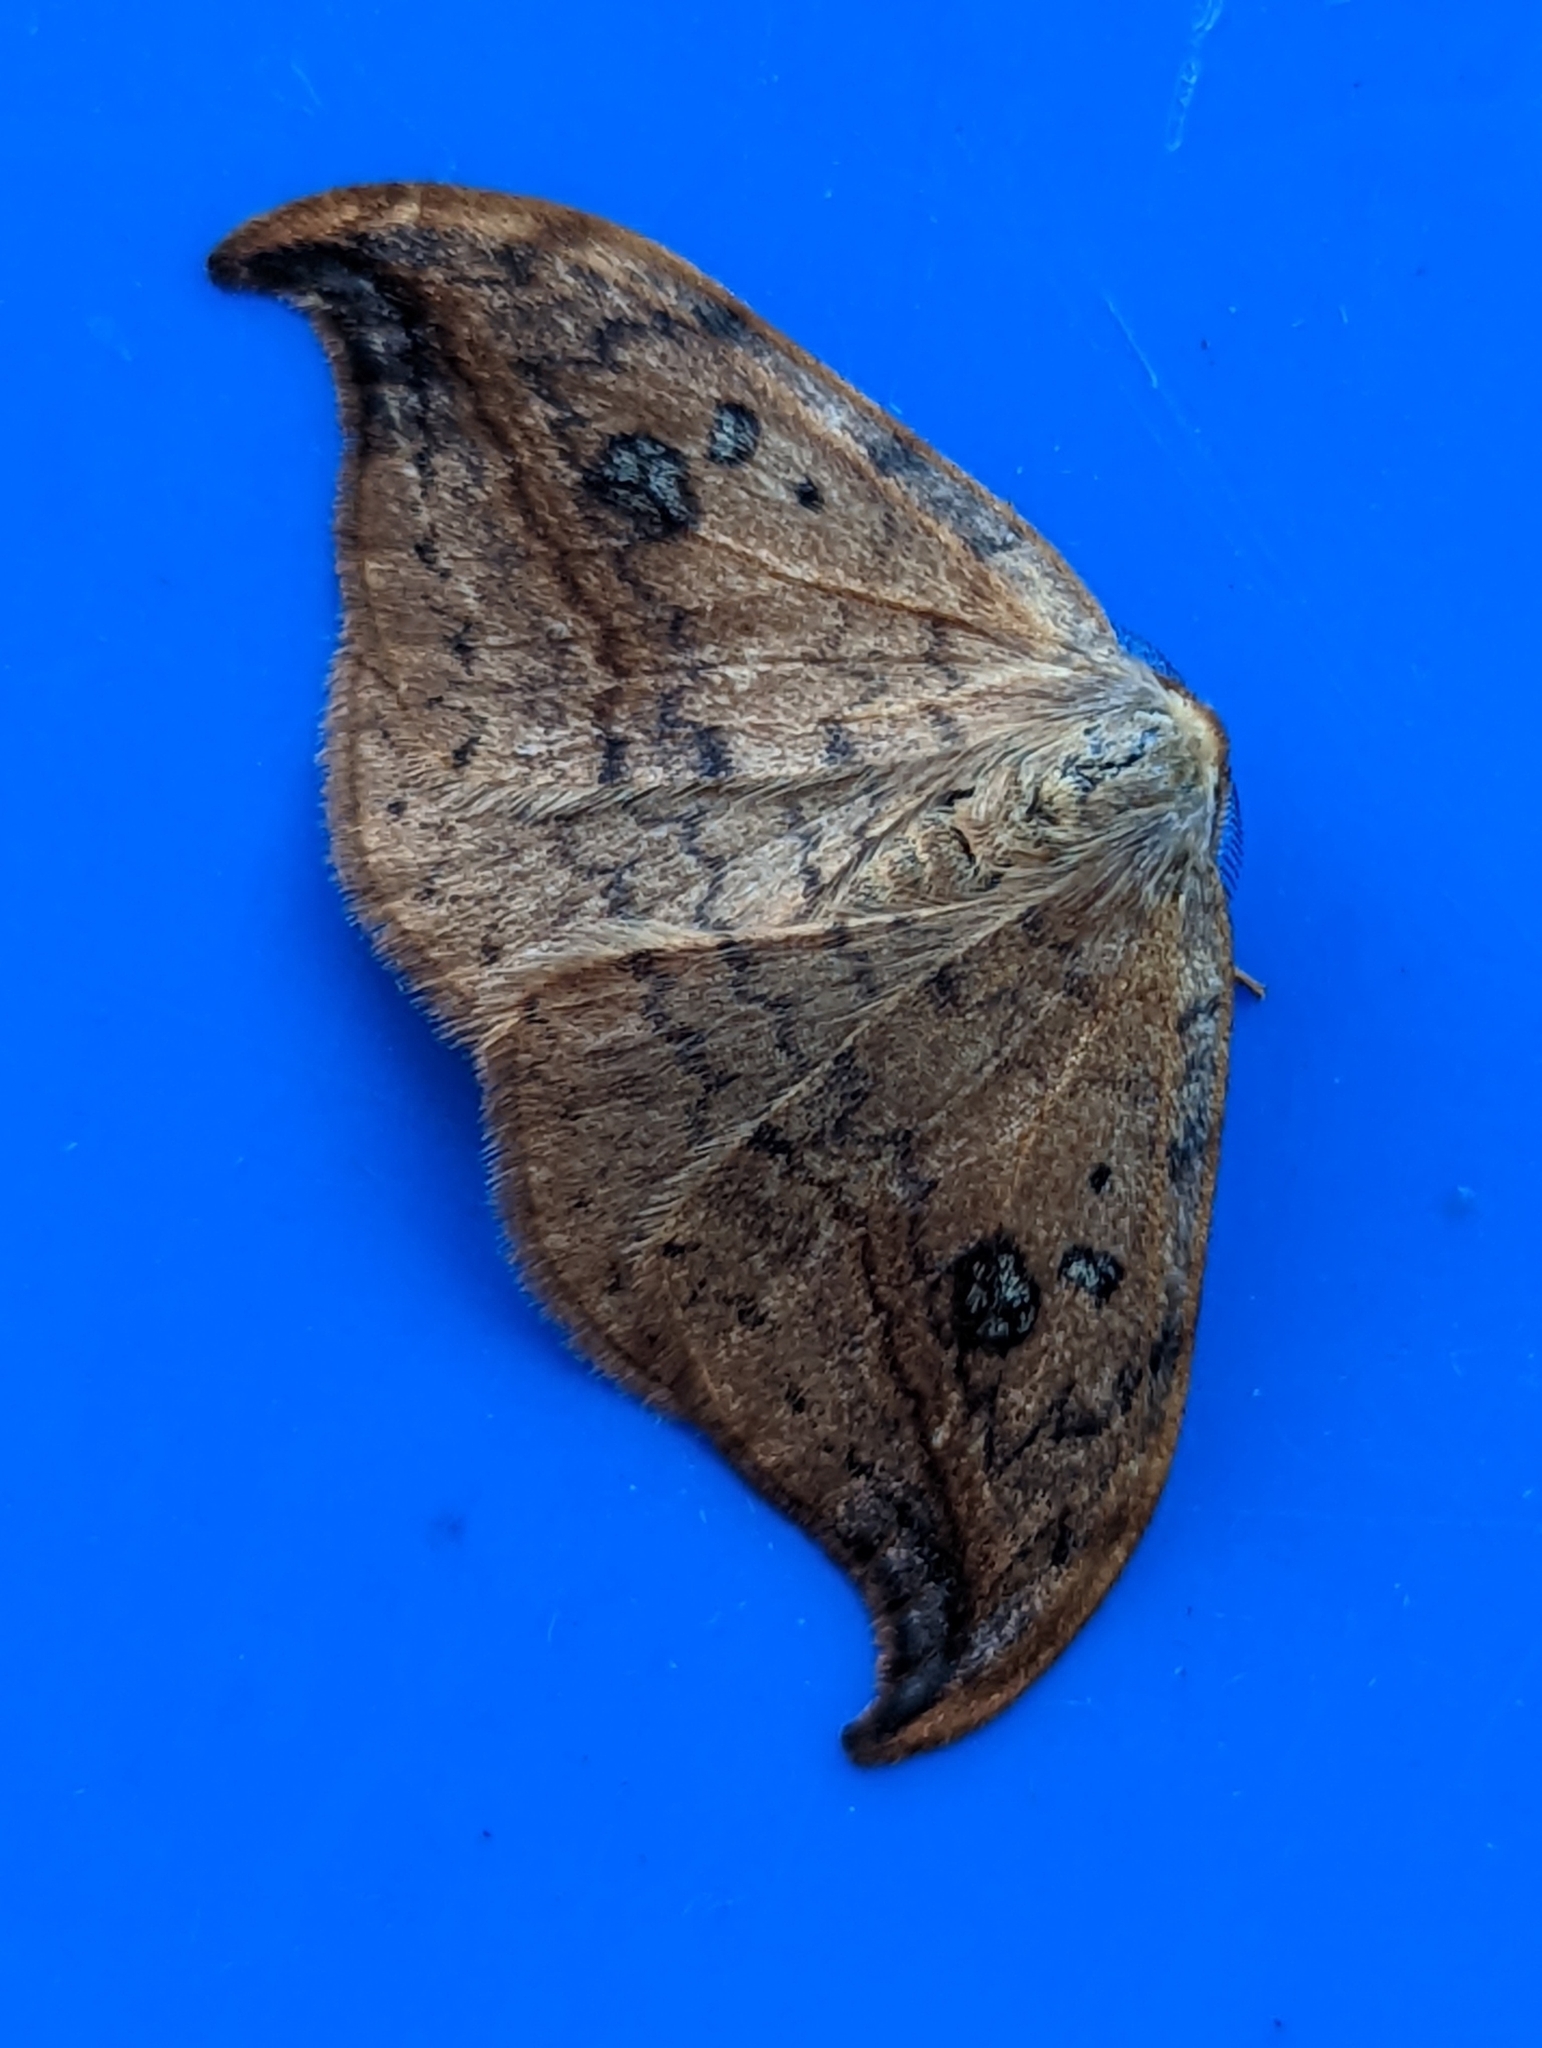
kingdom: Animalia
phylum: Arthropoda
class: Insecta
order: Lepidoptera
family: Drepanidae
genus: Drepana
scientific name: Drepana falcataria
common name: Pebble hook-tip
